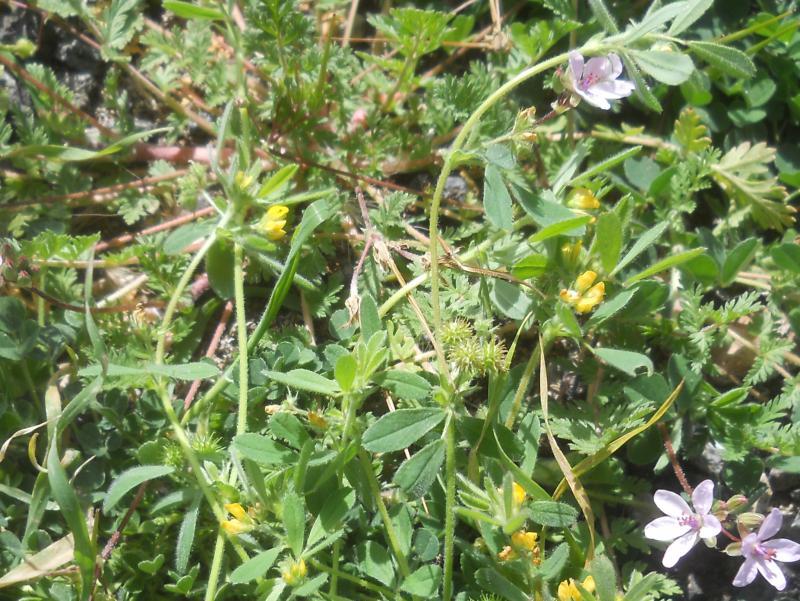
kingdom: Plantae
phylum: Tracheophyta
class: Magnoliopsida
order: Fabales
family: Fabaceae
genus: Medicago
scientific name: Medicago polymorpha
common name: Burclover
